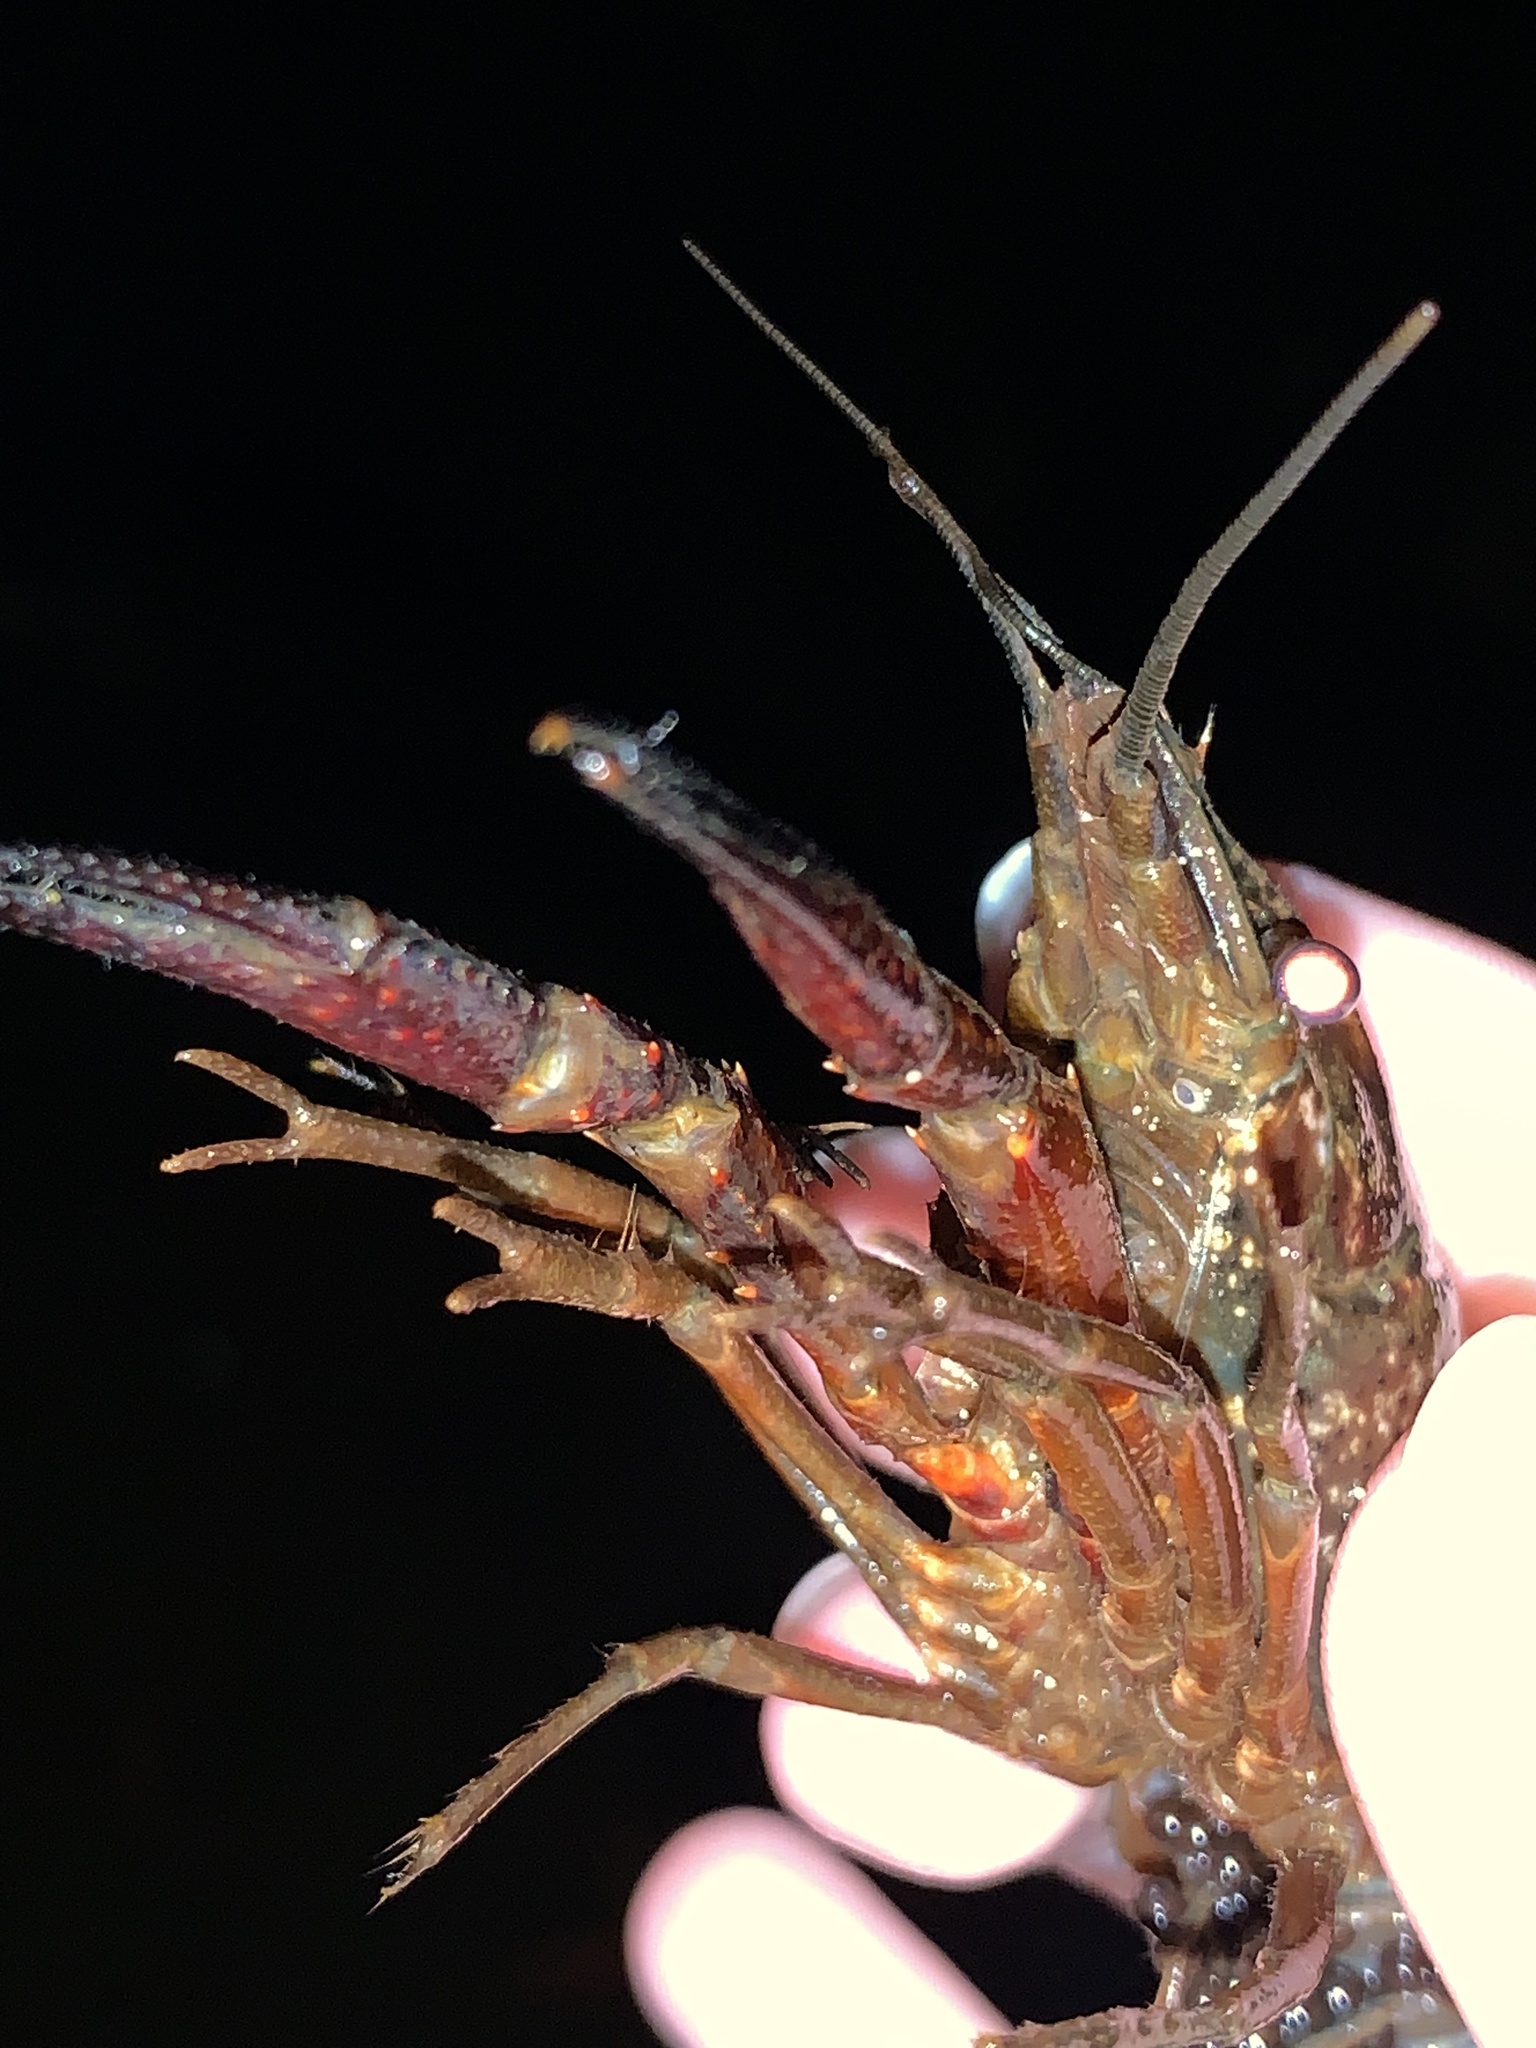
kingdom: Animalia
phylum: Arthropoda
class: Malacostraca
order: Decapoda
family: Cambaridae
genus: Procambarus
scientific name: Procambarus clarkii
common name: Red swamp crayfish
